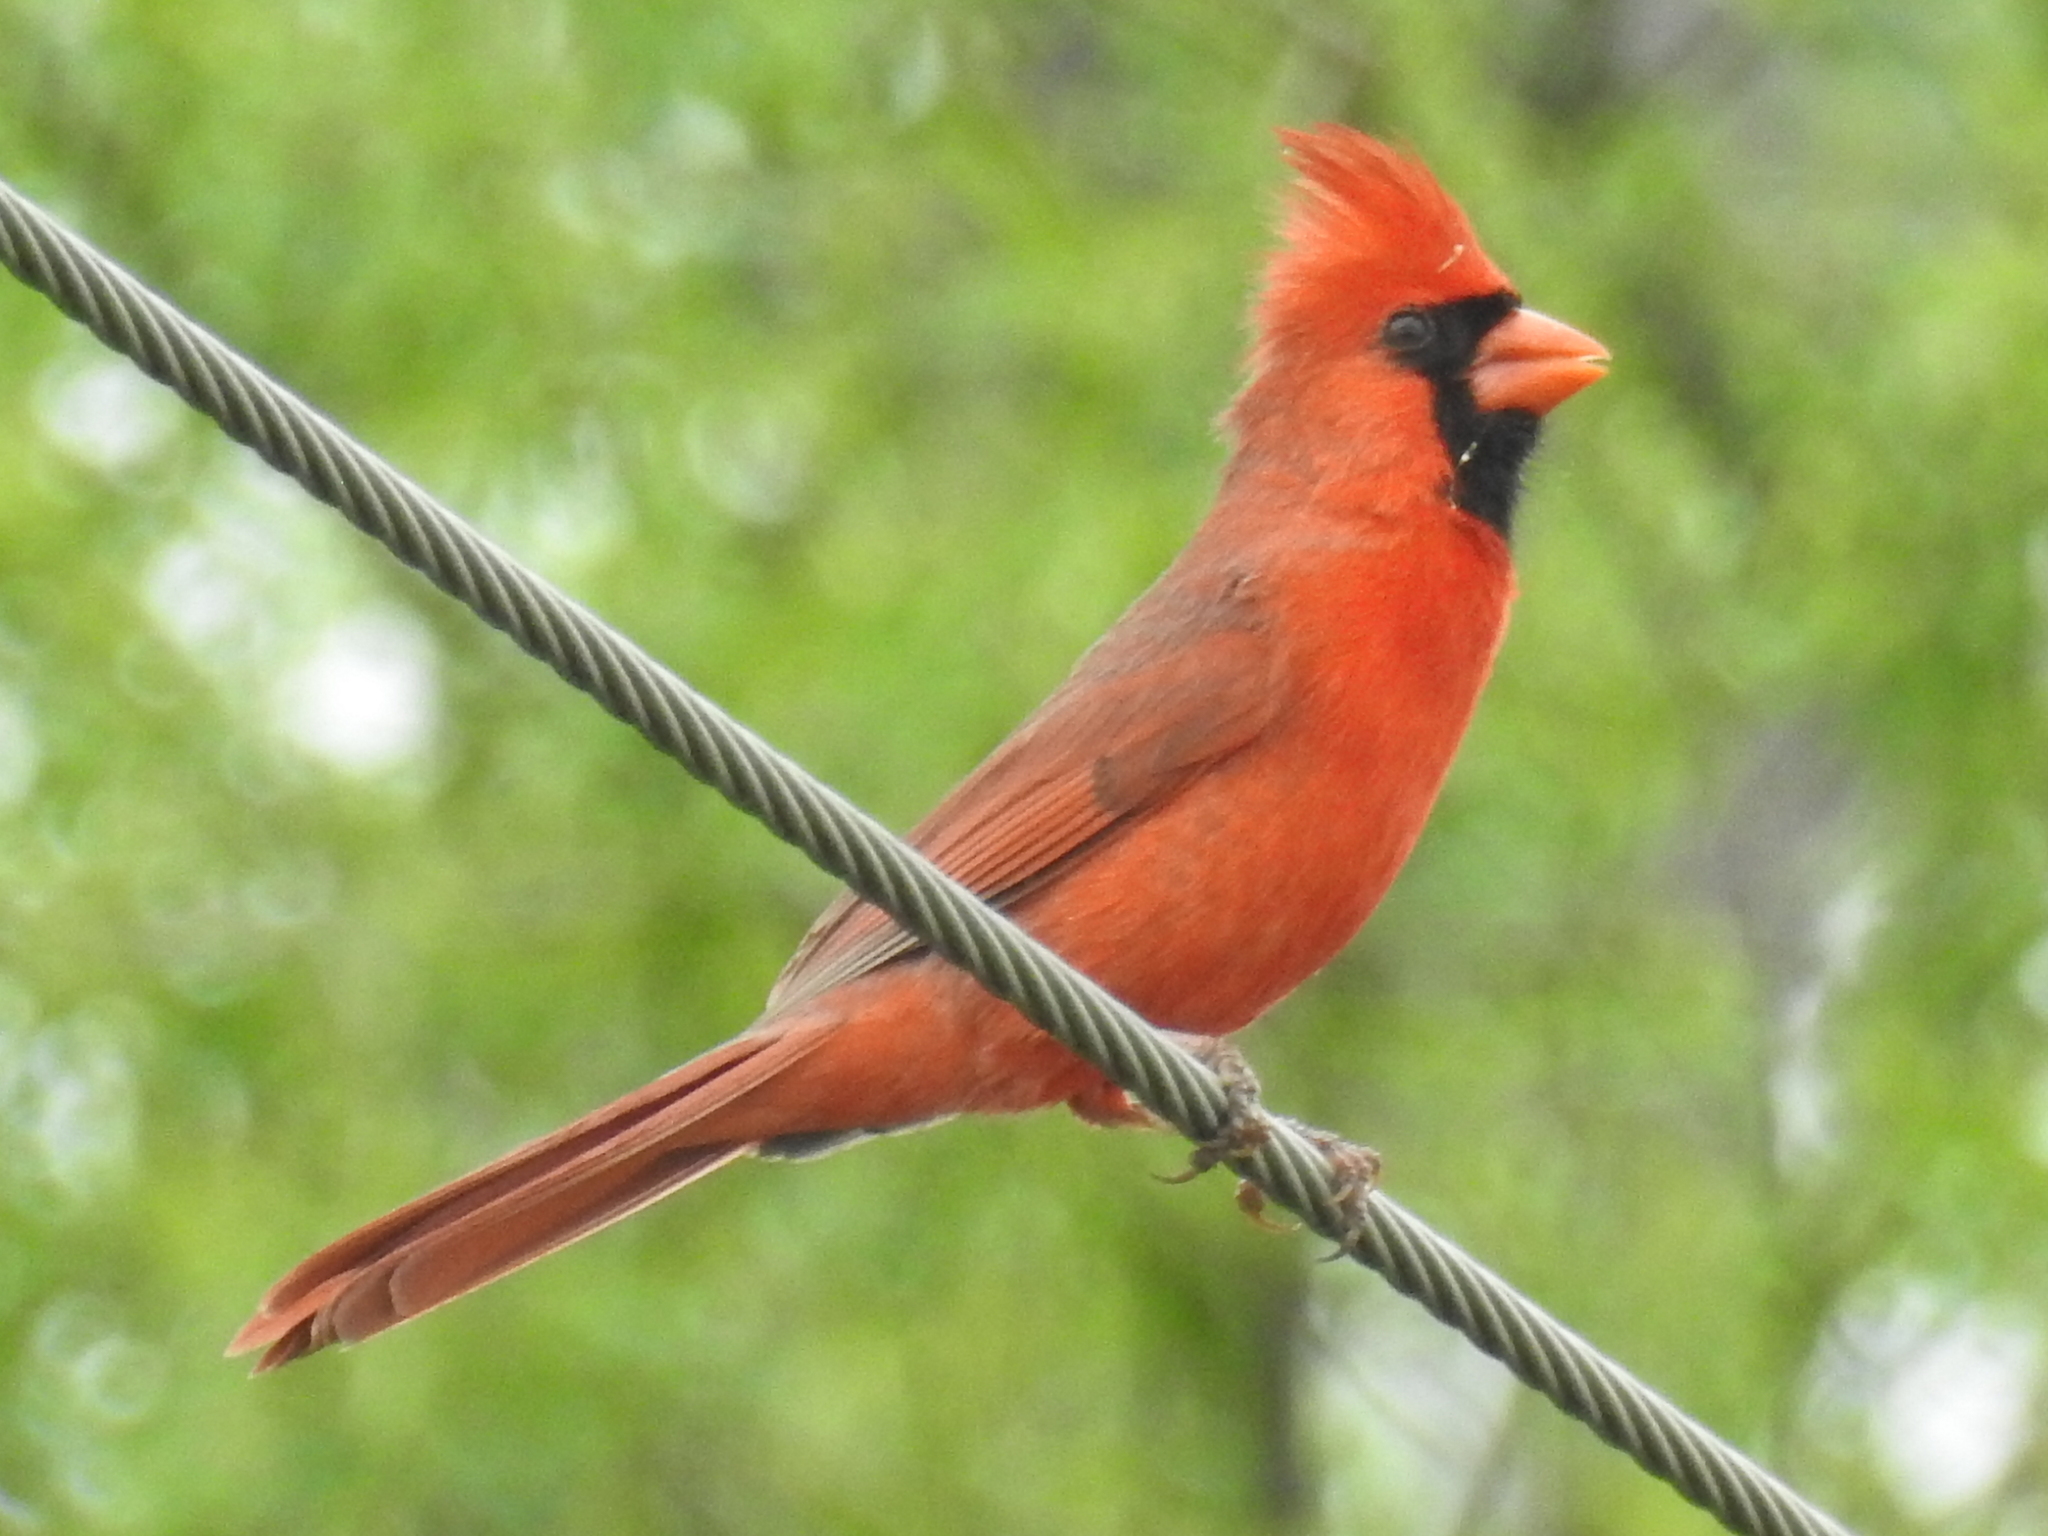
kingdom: Animalia
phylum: Chordata
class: Aves
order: Passeriformes
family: Cardinalidae
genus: Cardinalis
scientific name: Cardinalis cardinalis
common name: Northern cardinal
